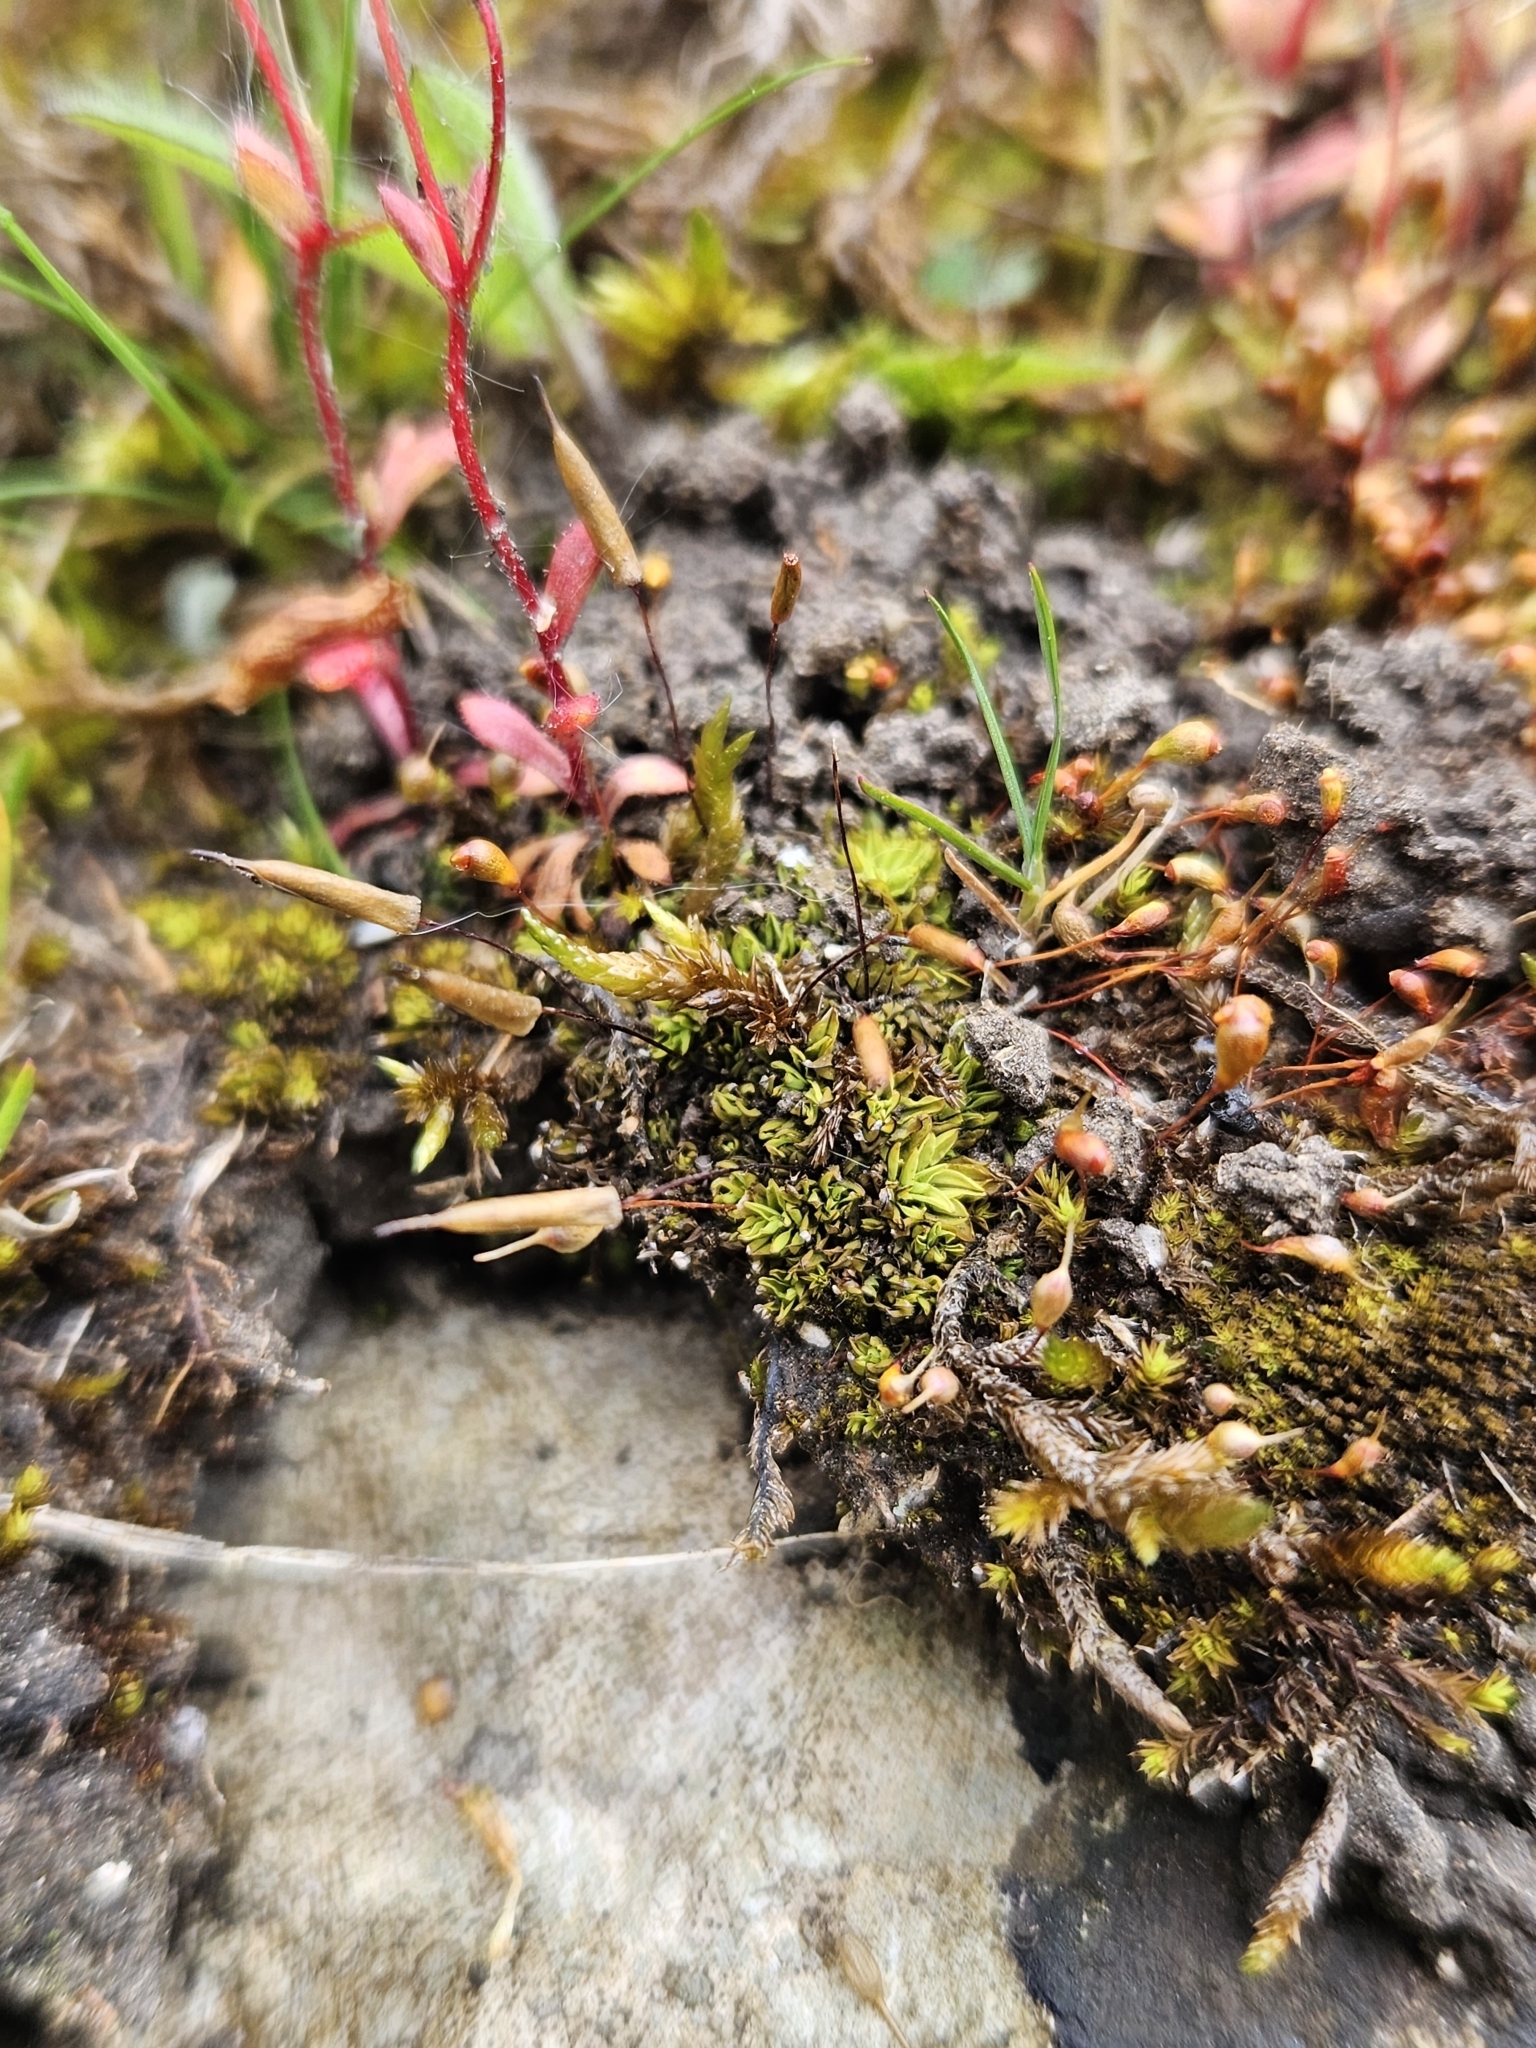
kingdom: Plantae
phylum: Bryophyta
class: Bryopsida
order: Encalyptales
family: Encalyptaceae
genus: Encalypta
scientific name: Encalypta vulgaris
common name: Common extinguisher-moss
